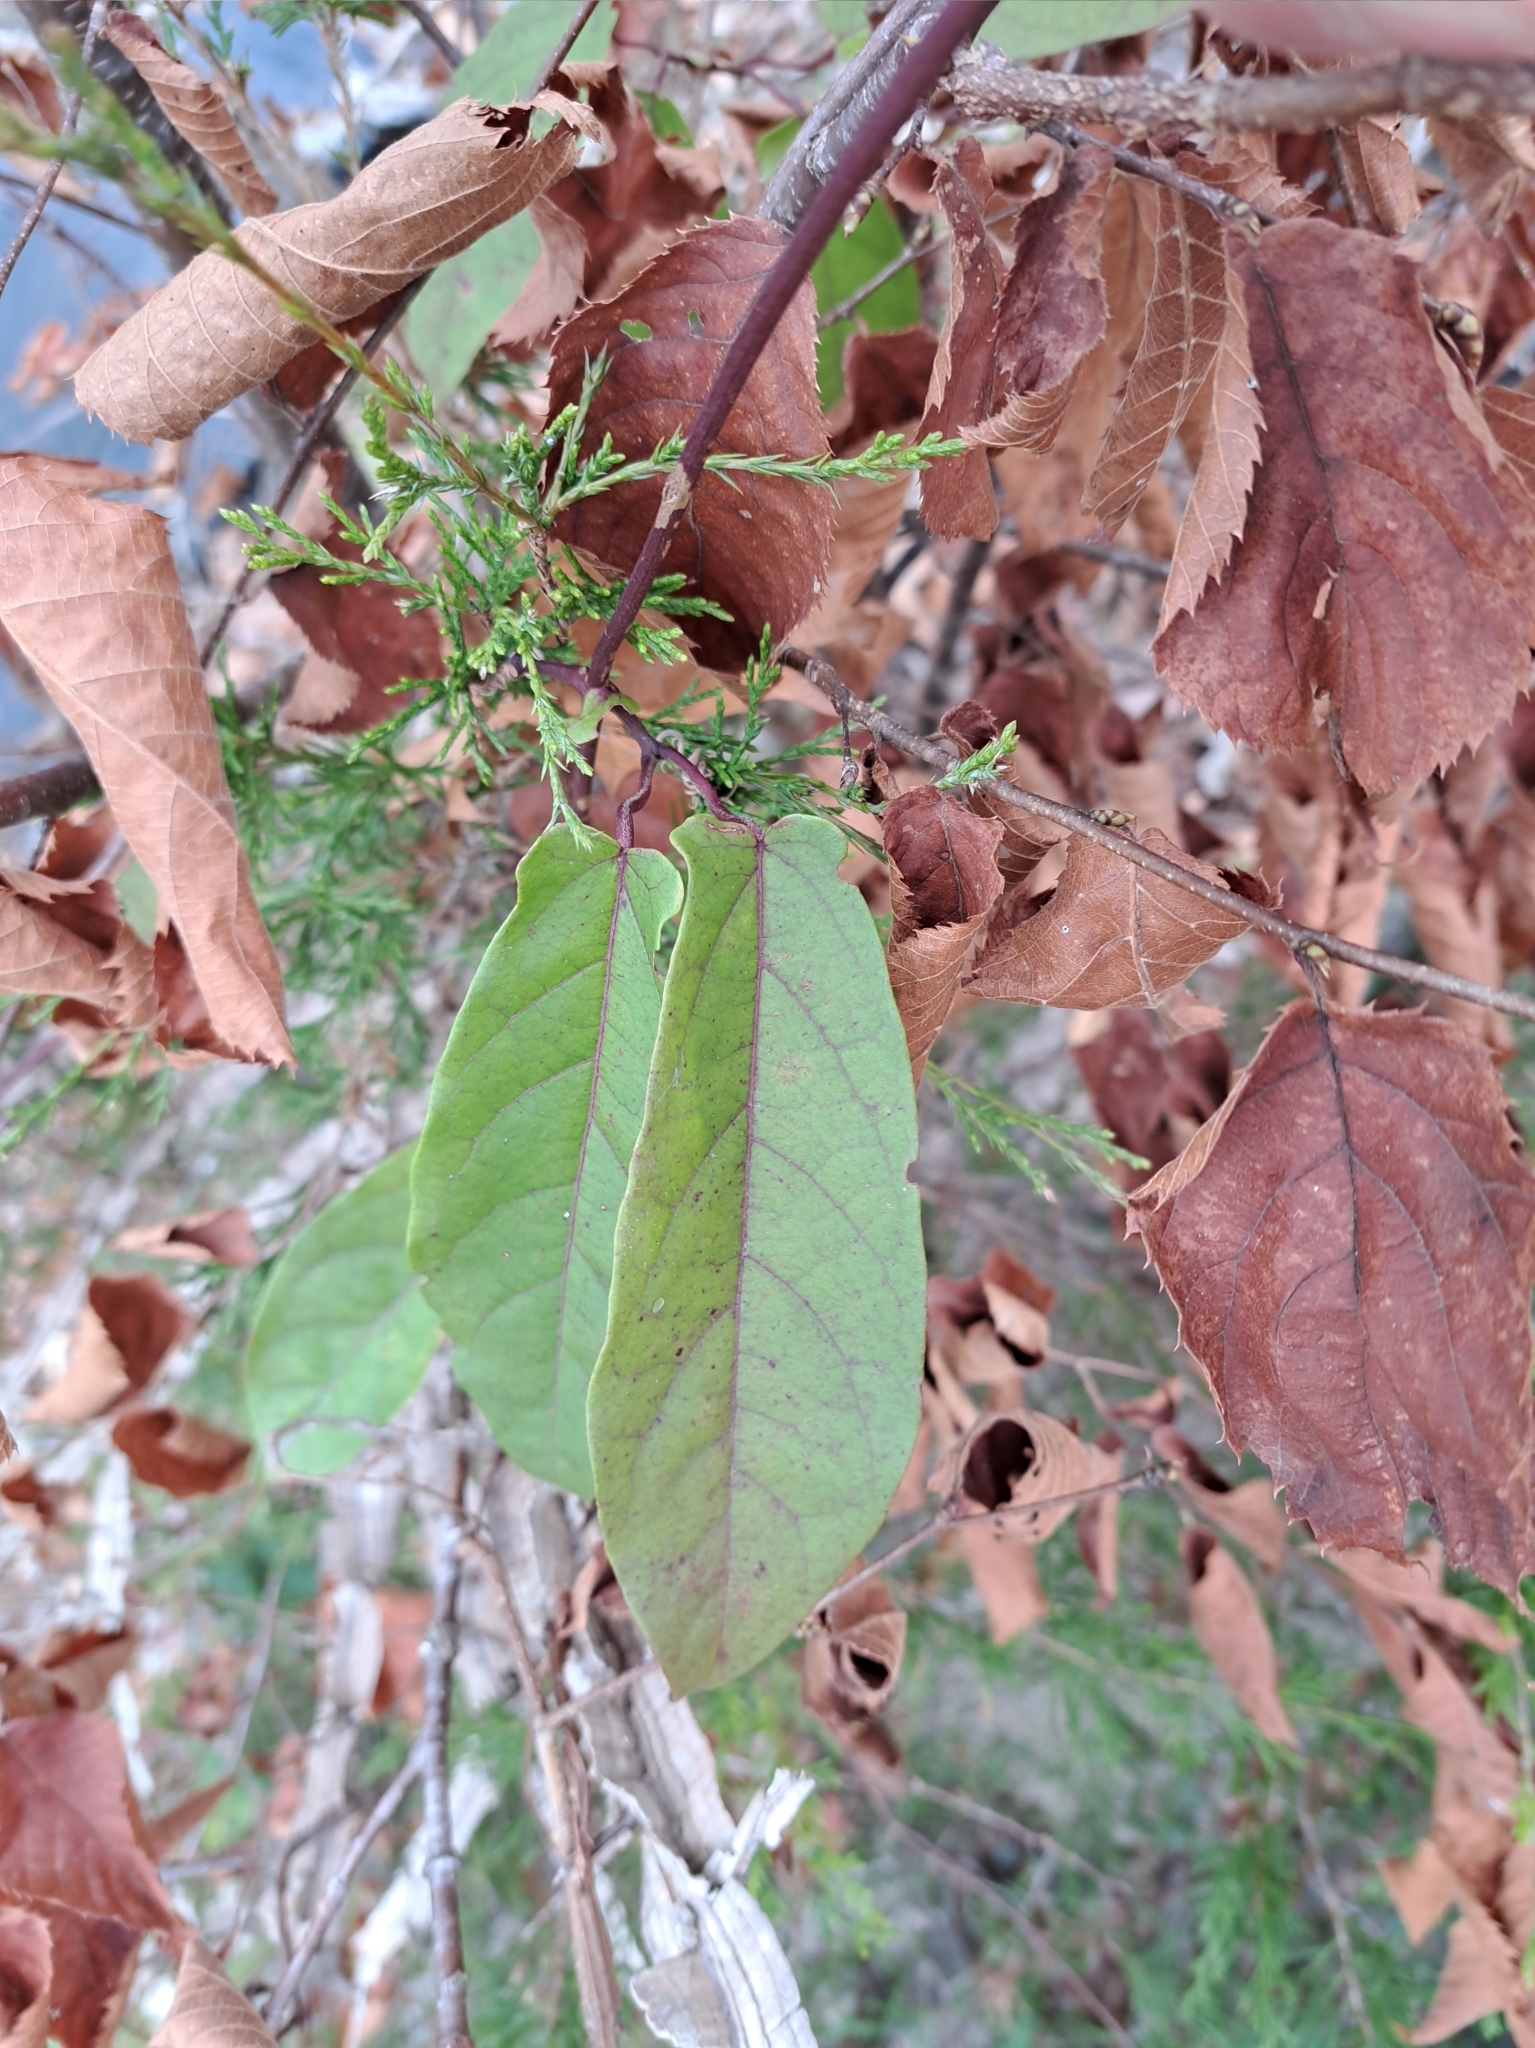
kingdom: Plantae
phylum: Tracheophyta
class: Magnoliopsida
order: Lamiales
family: Bignoniaceae
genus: Bignonia
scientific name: Bignonia capreolata
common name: Crossvine
